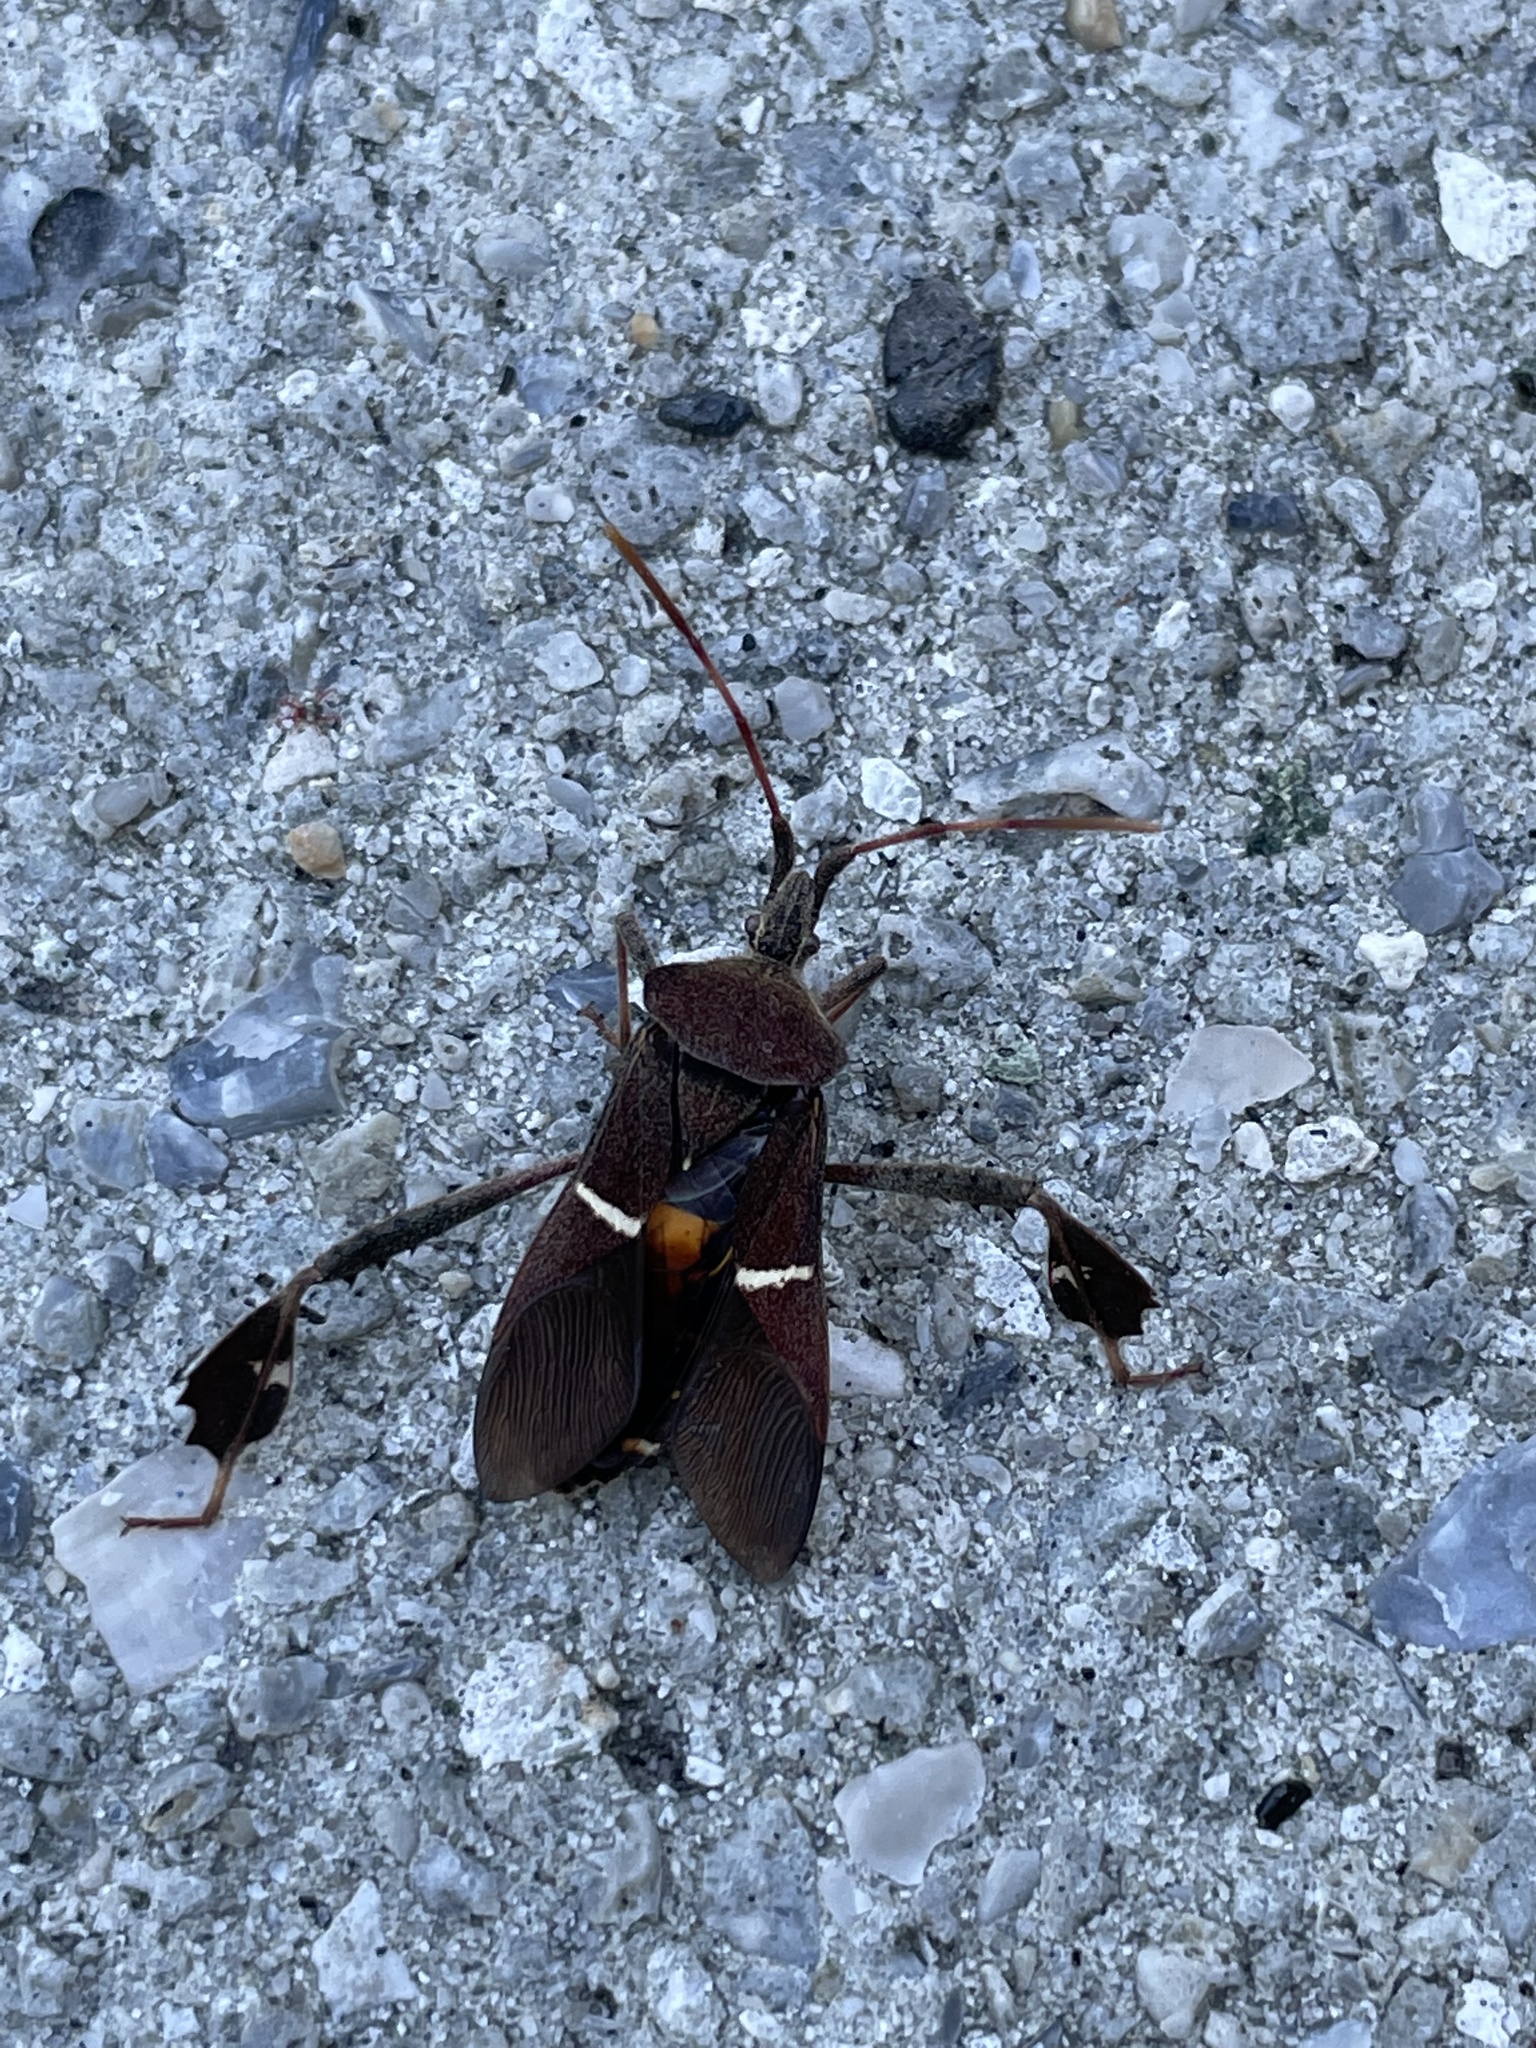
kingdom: Animalia
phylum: Arthropoda
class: Insecta
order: Hemiptera
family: Coreidae
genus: Leptoglossus
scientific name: Leptoglossus phyllopus
